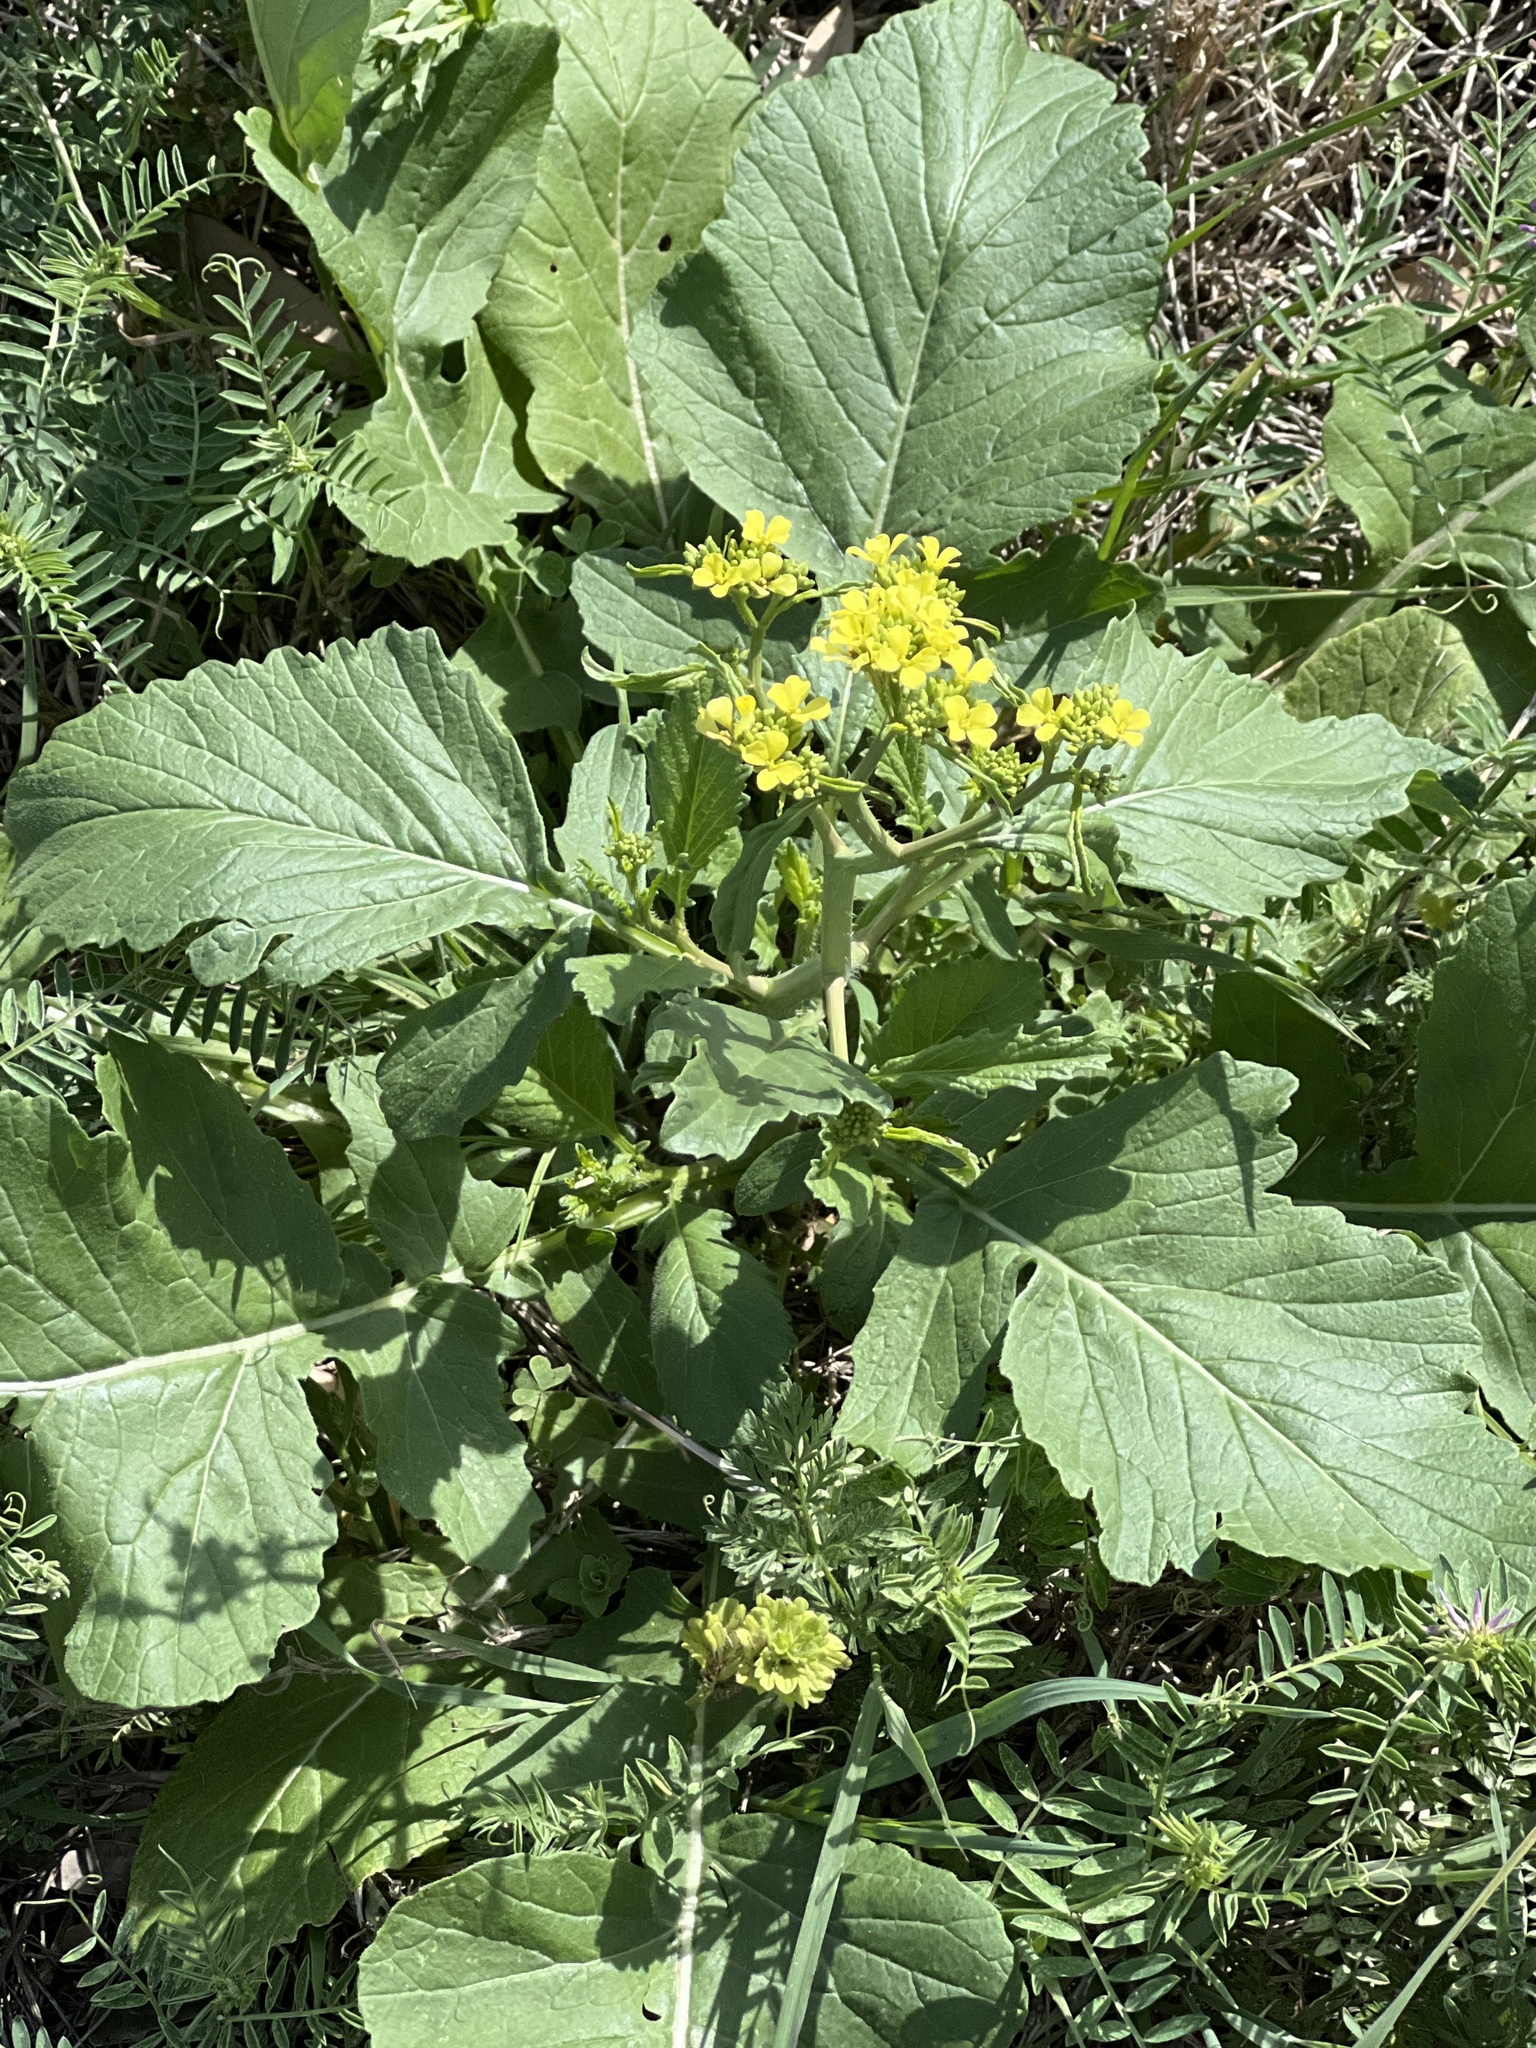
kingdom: Plantae
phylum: Tracheophyta
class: Magnoliopsida
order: Brassicales
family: Brassicaceae
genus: Rapistrum
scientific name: Rapistrum rugosum
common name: Annual bastardcabbage
